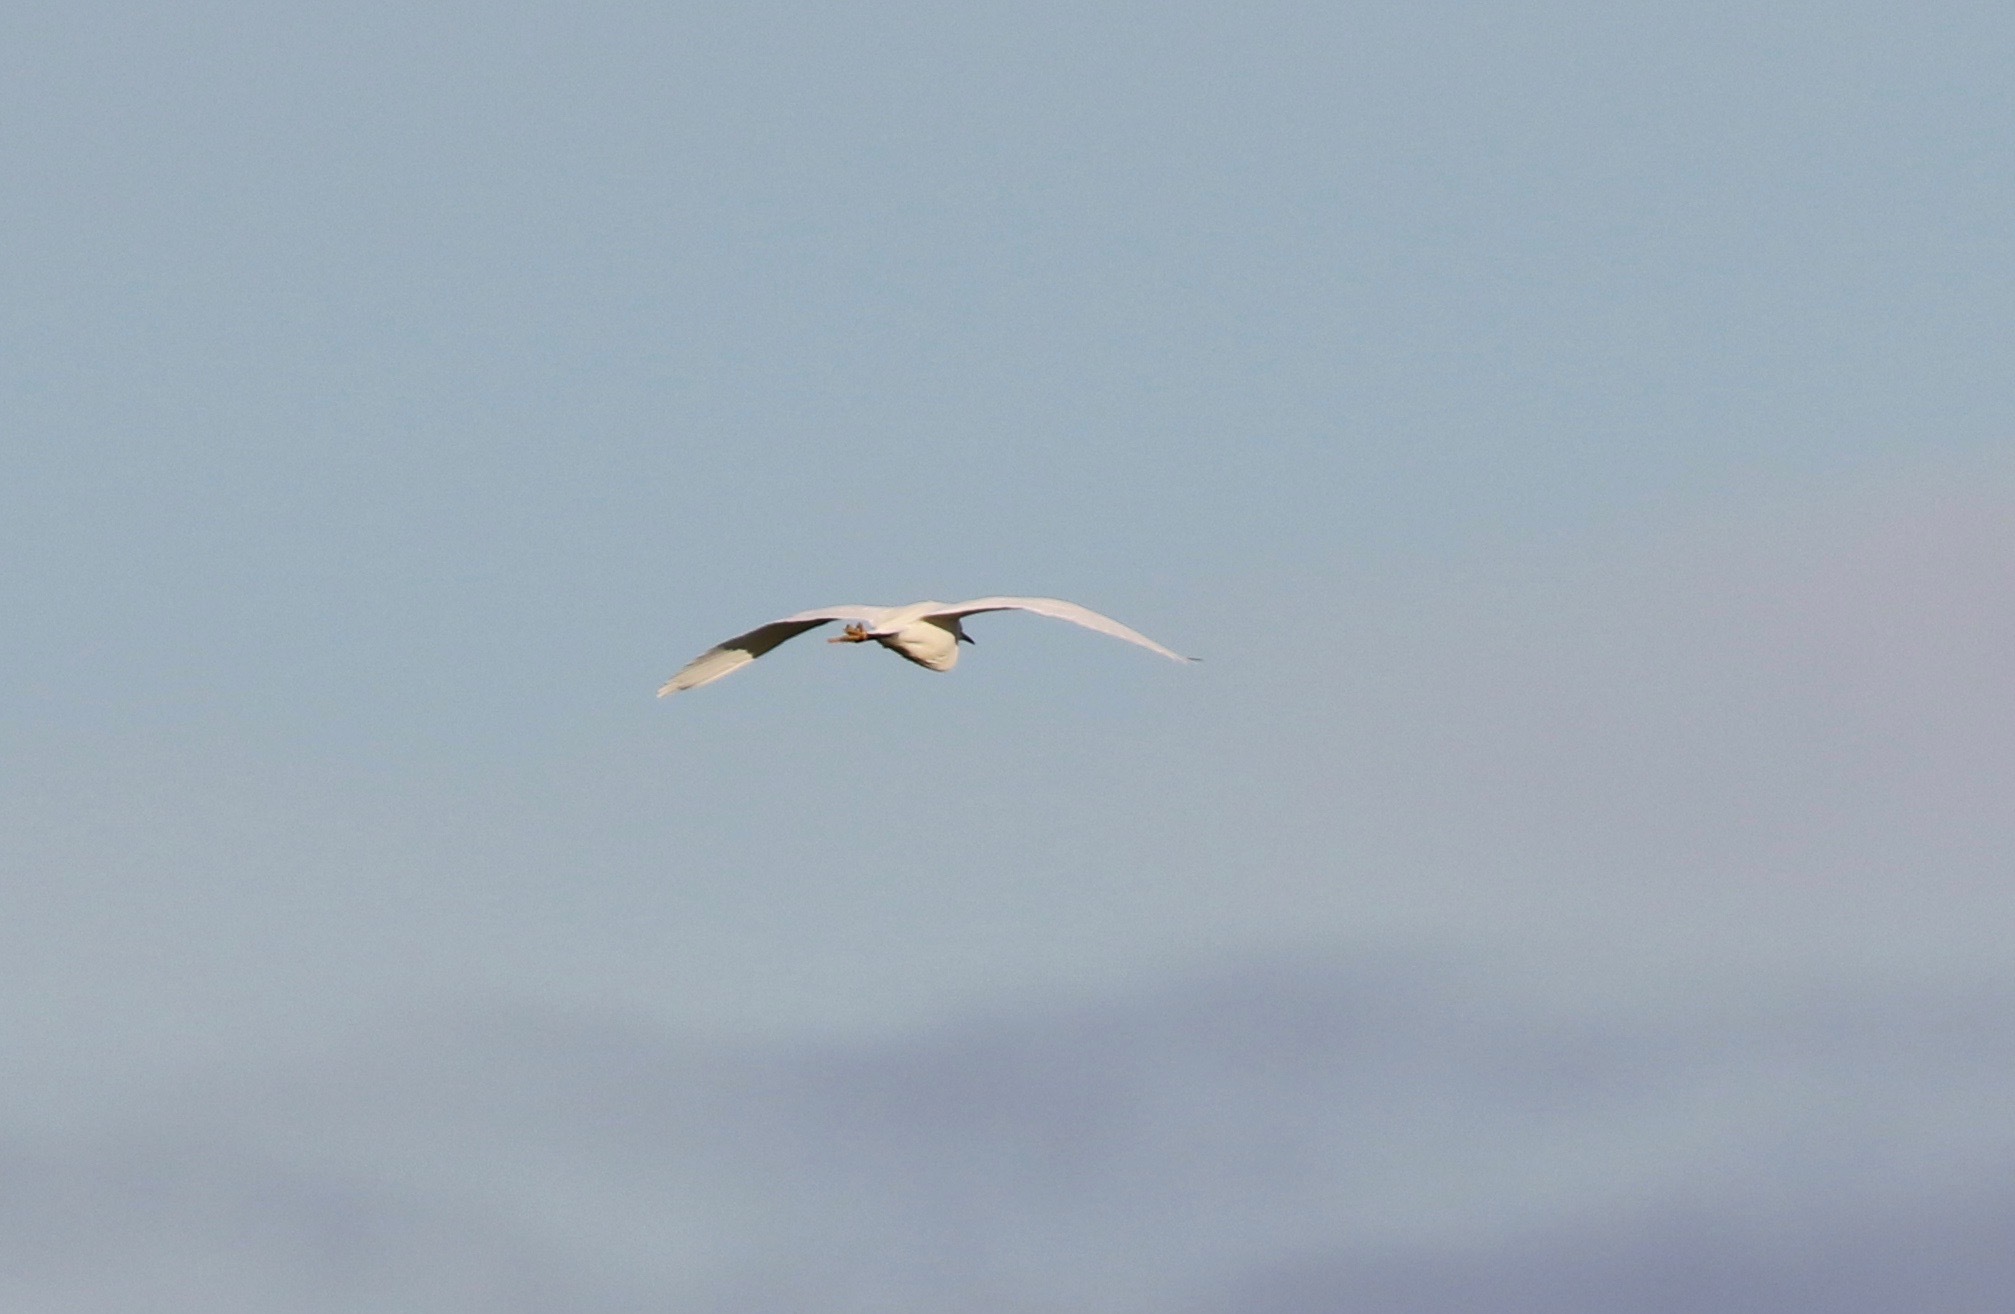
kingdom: Animalia
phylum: Chordata
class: Aves
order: Pelecaniformes
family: Ardeidae
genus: Egretta
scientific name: Egretta garzetta
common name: Little egret
